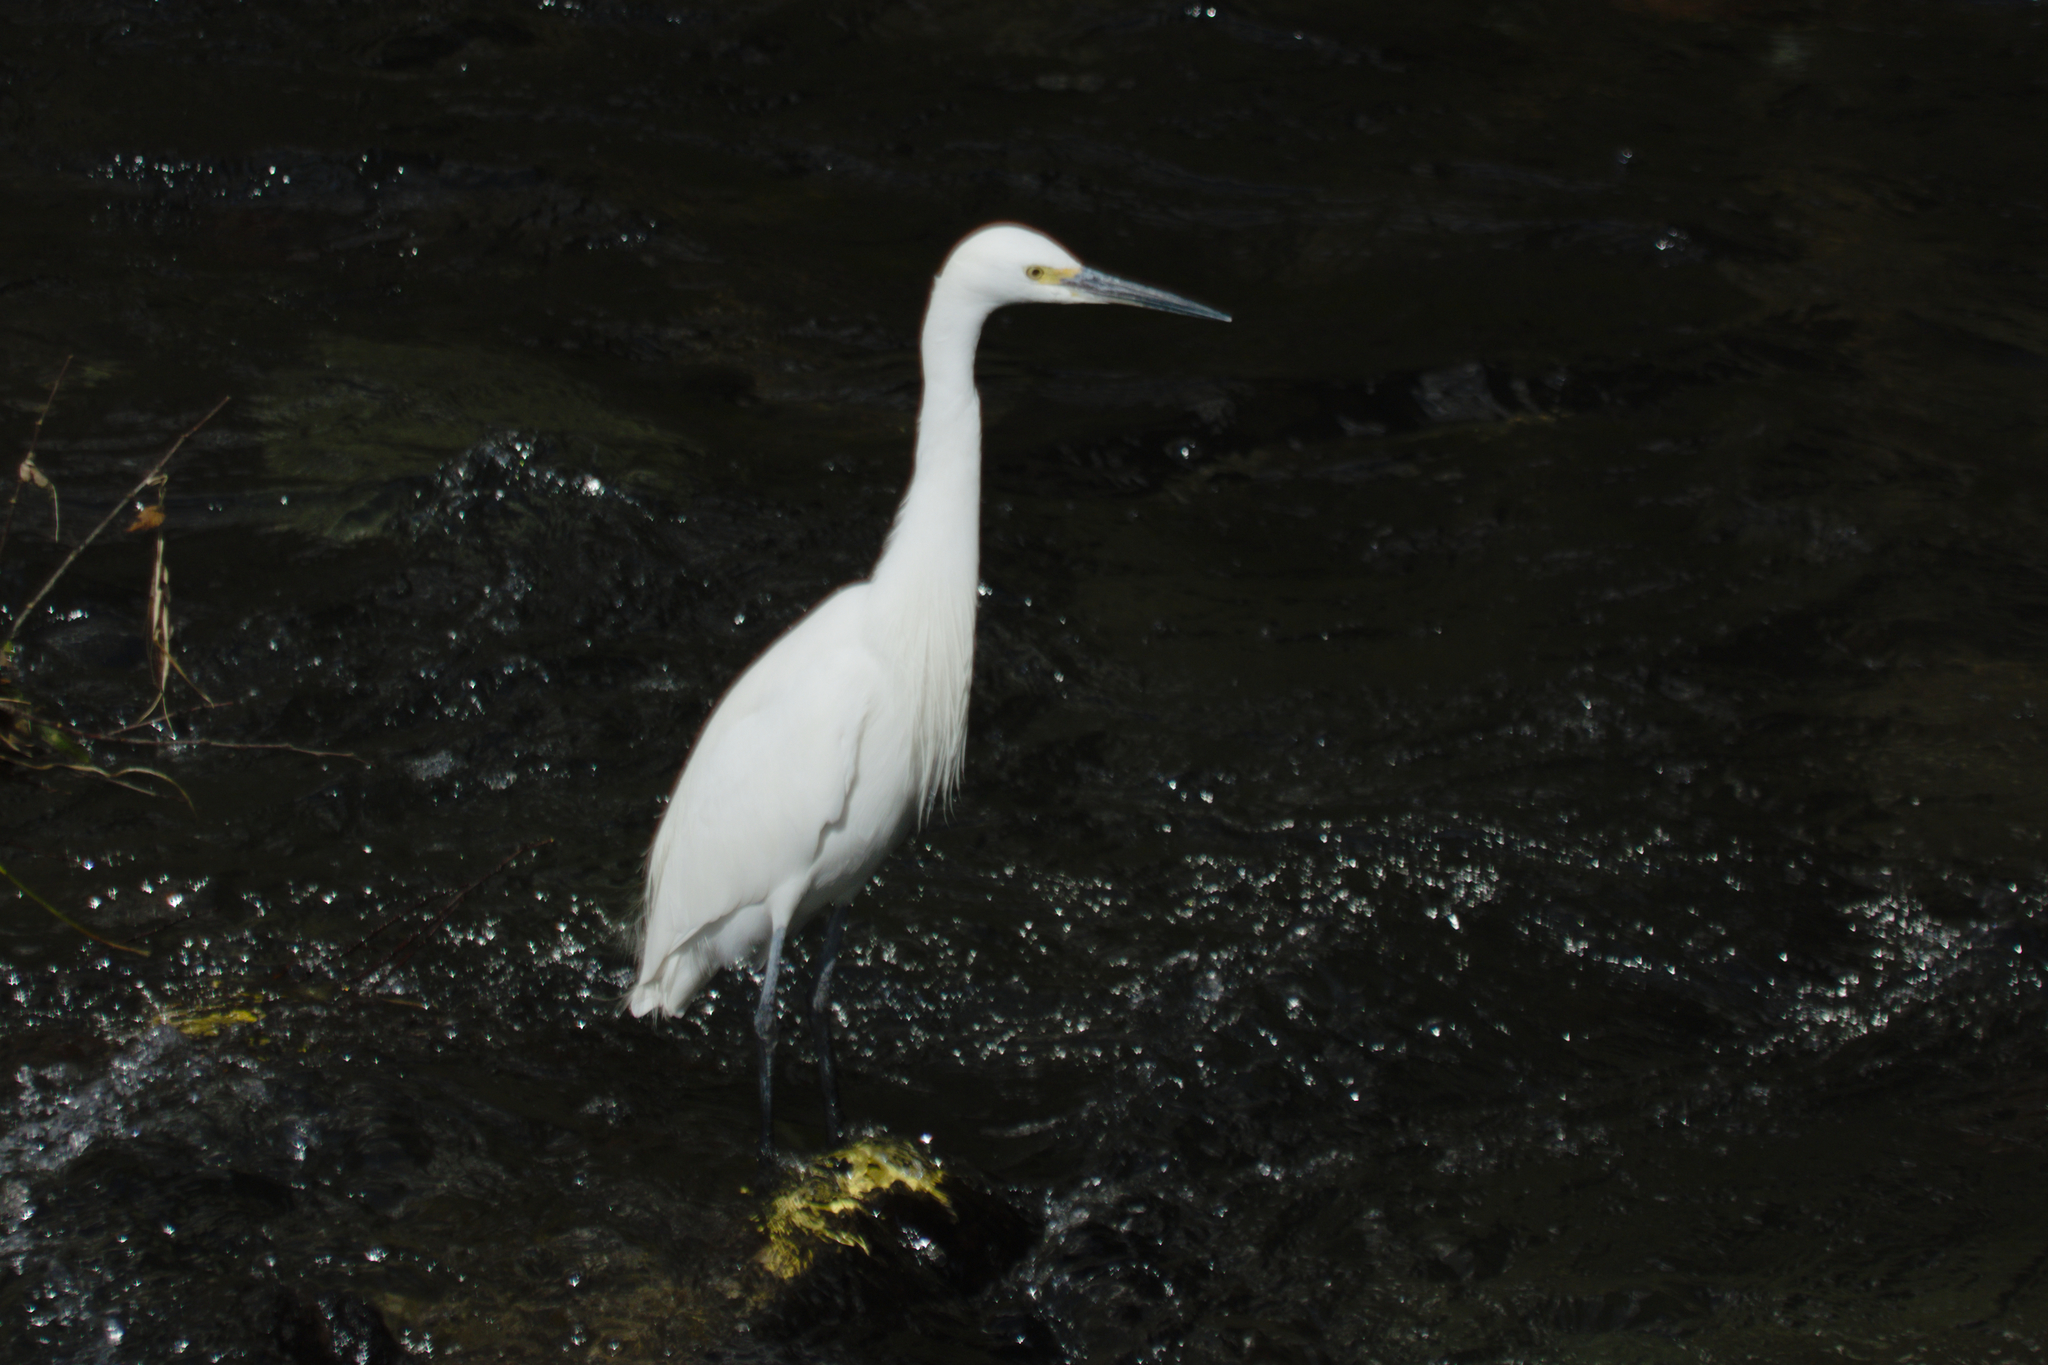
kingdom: Animalia
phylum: Chordata
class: Aves
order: Pelecaniformes
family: Ardeidae
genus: Egretta
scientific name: Egretta garzetta
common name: Little egret
